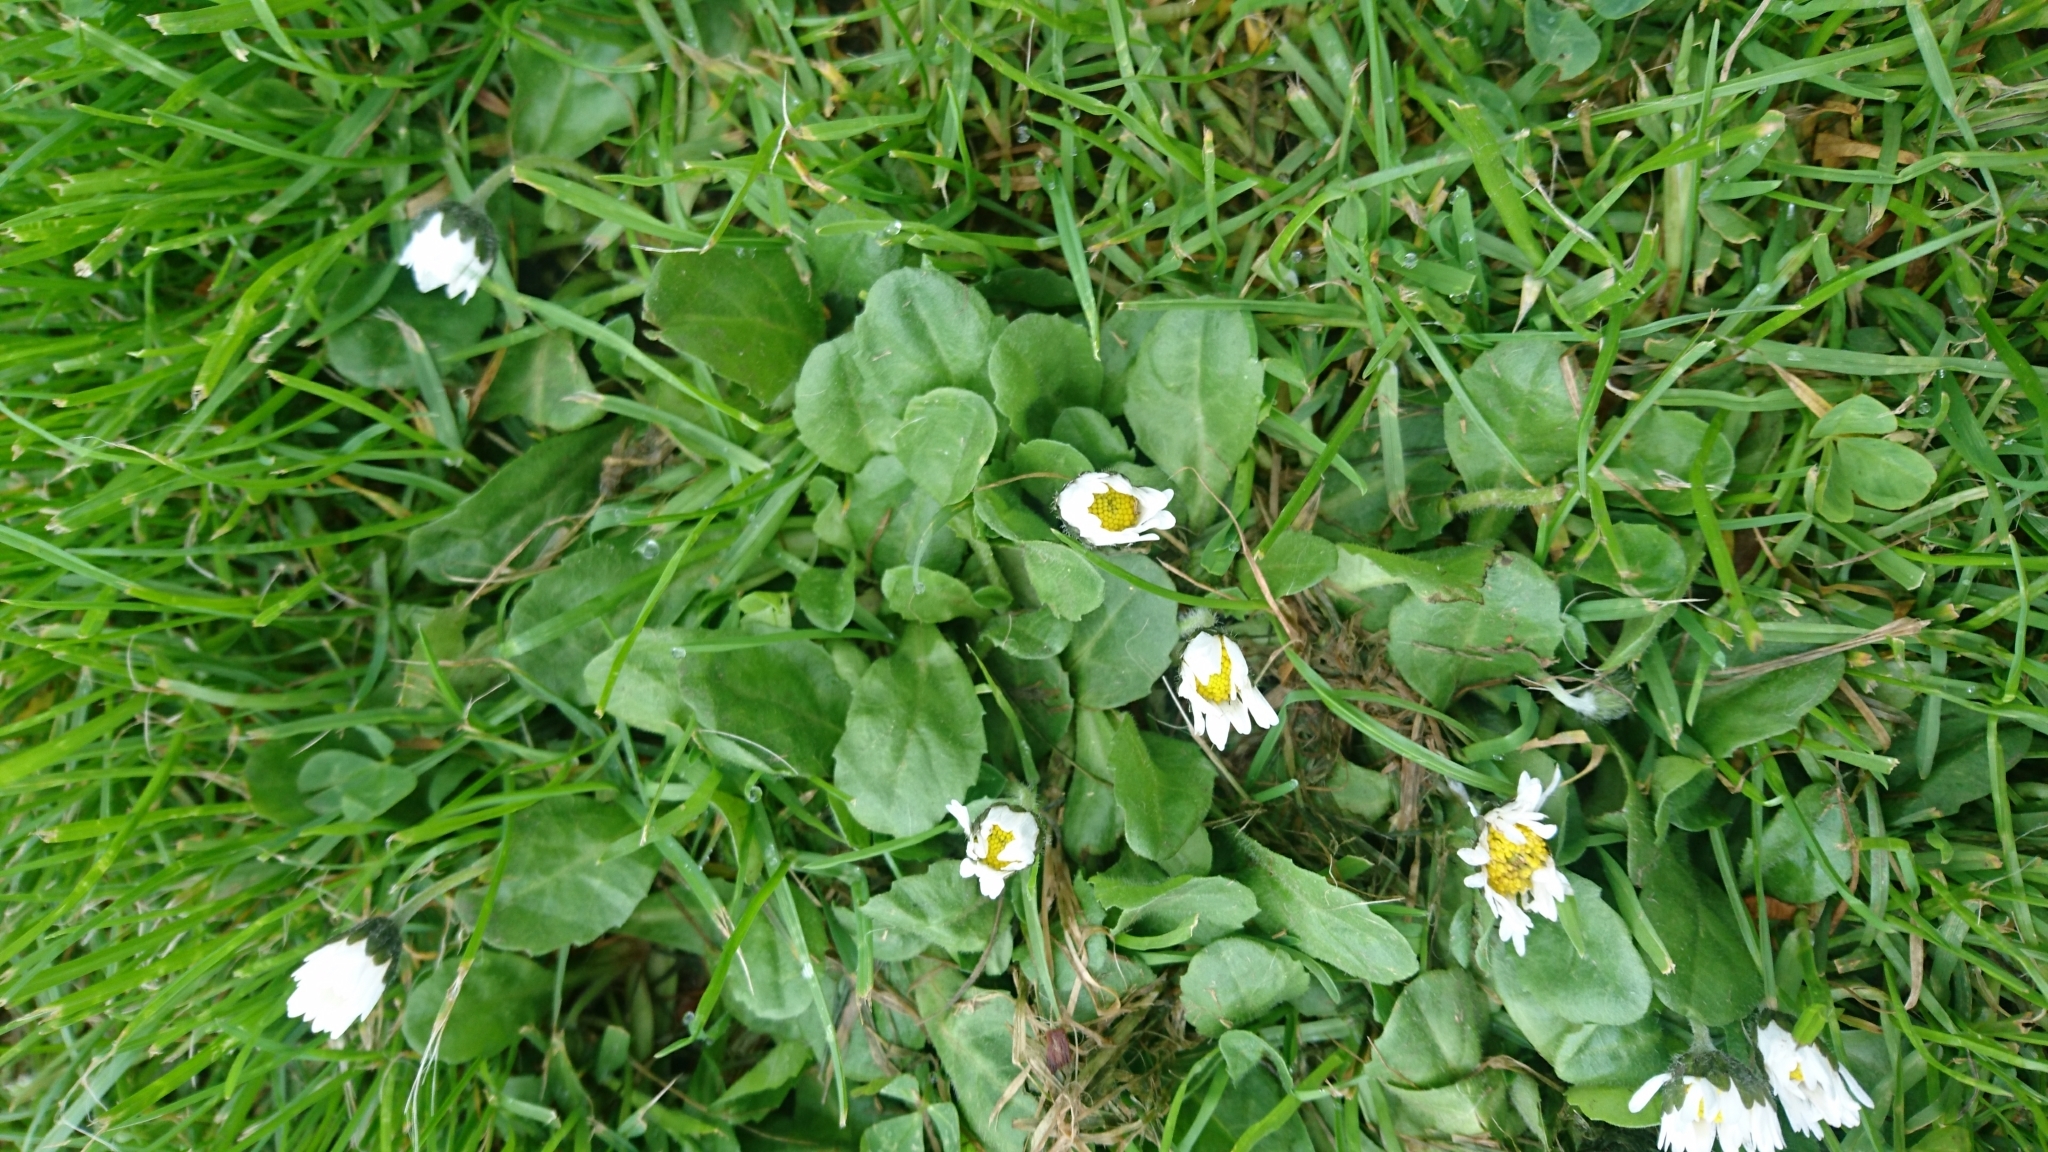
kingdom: Plantae
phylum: Tracheophyta
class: Magnoliopsida
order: Asterales
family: Asteraceae
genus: Bellis
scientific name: Bellis perennis
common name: Lawndaisy
